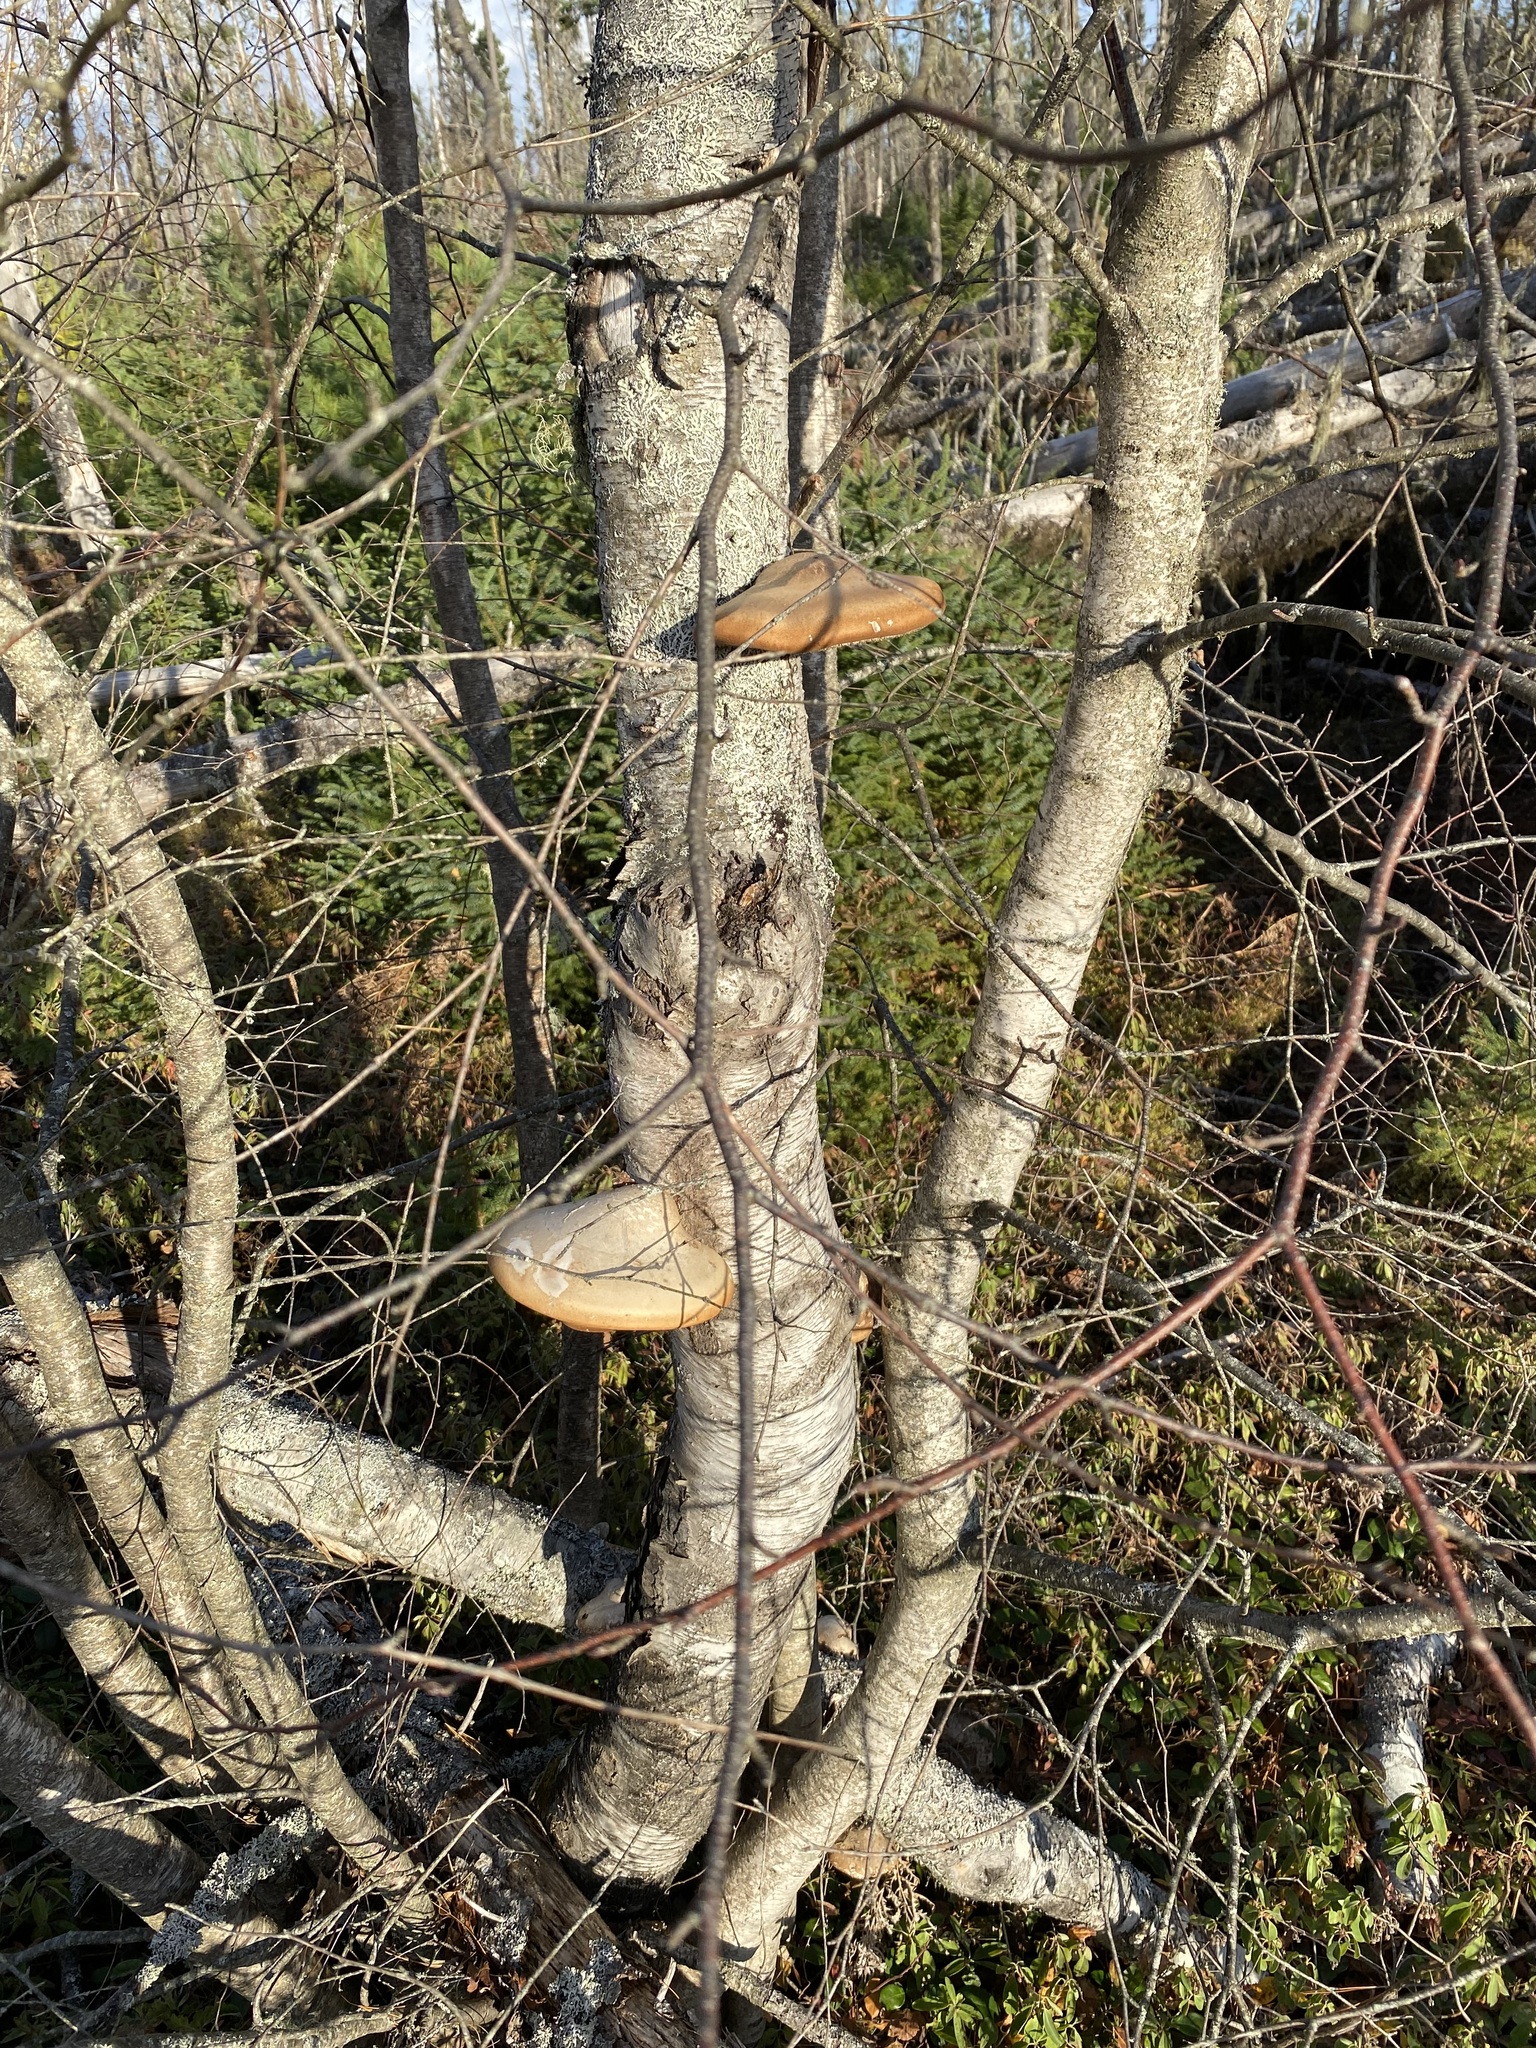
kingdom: Fungi
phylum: Basidiomycota
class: Agaricomycetes
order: Polyporales
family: Fomitopsidaceae
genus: Fomitopsis
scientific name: Fomitopsis betulina
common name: Birch polypore
